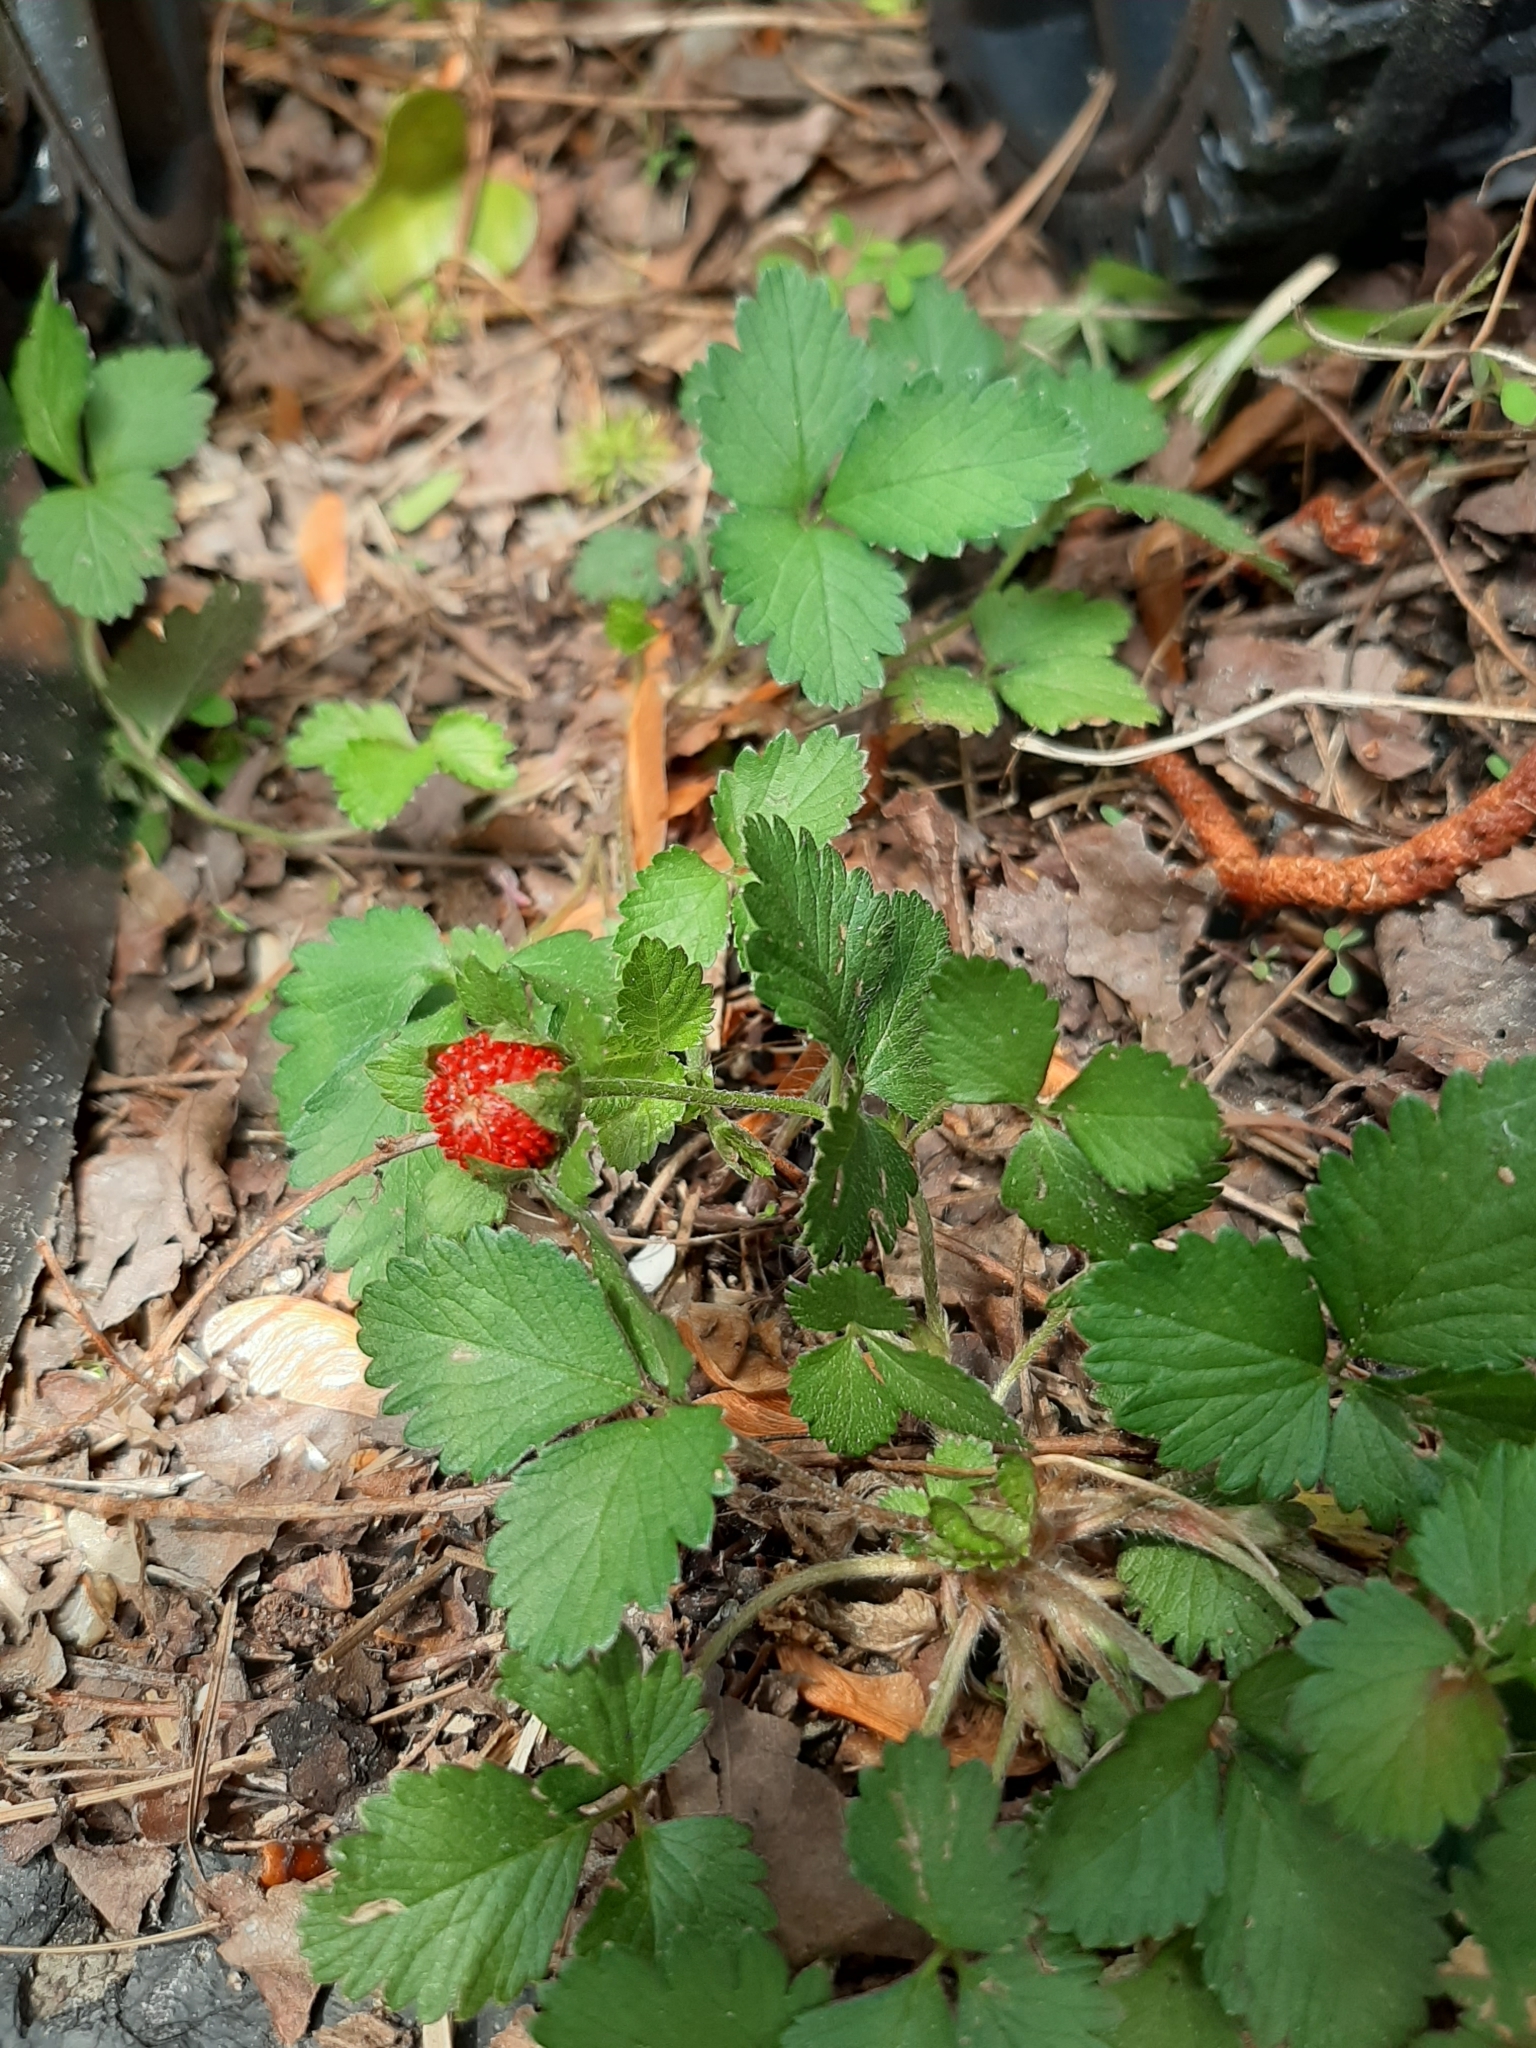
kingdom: Plantae
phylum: Tracheophyta
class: Magnoliopsida
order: Rosales
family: Rosaceae
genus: Potentilla
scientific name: Potentilla indica
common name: Yellow-flowered strawberry
